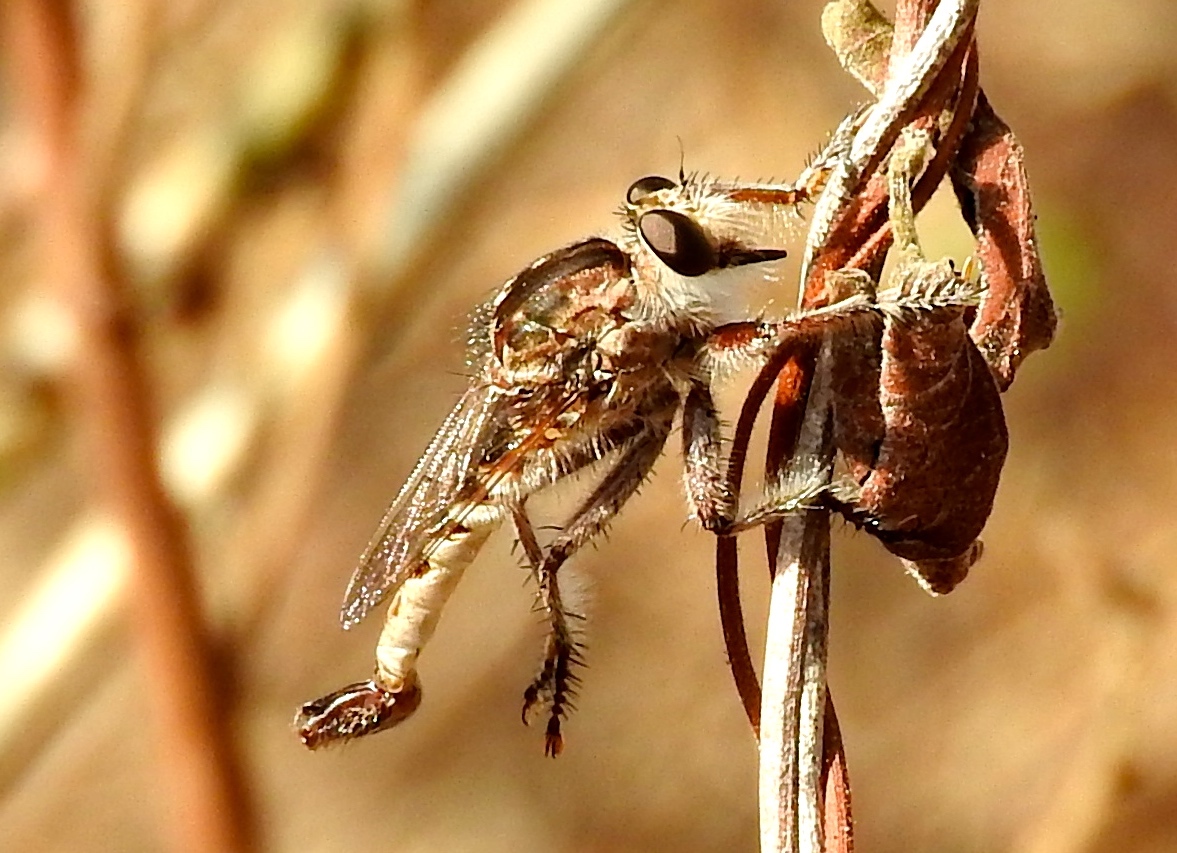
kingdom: Animalia
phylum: Arthropoda
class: Insecta
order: Diptera
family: Asilidae
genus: Efferia
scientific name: Efferia triton
